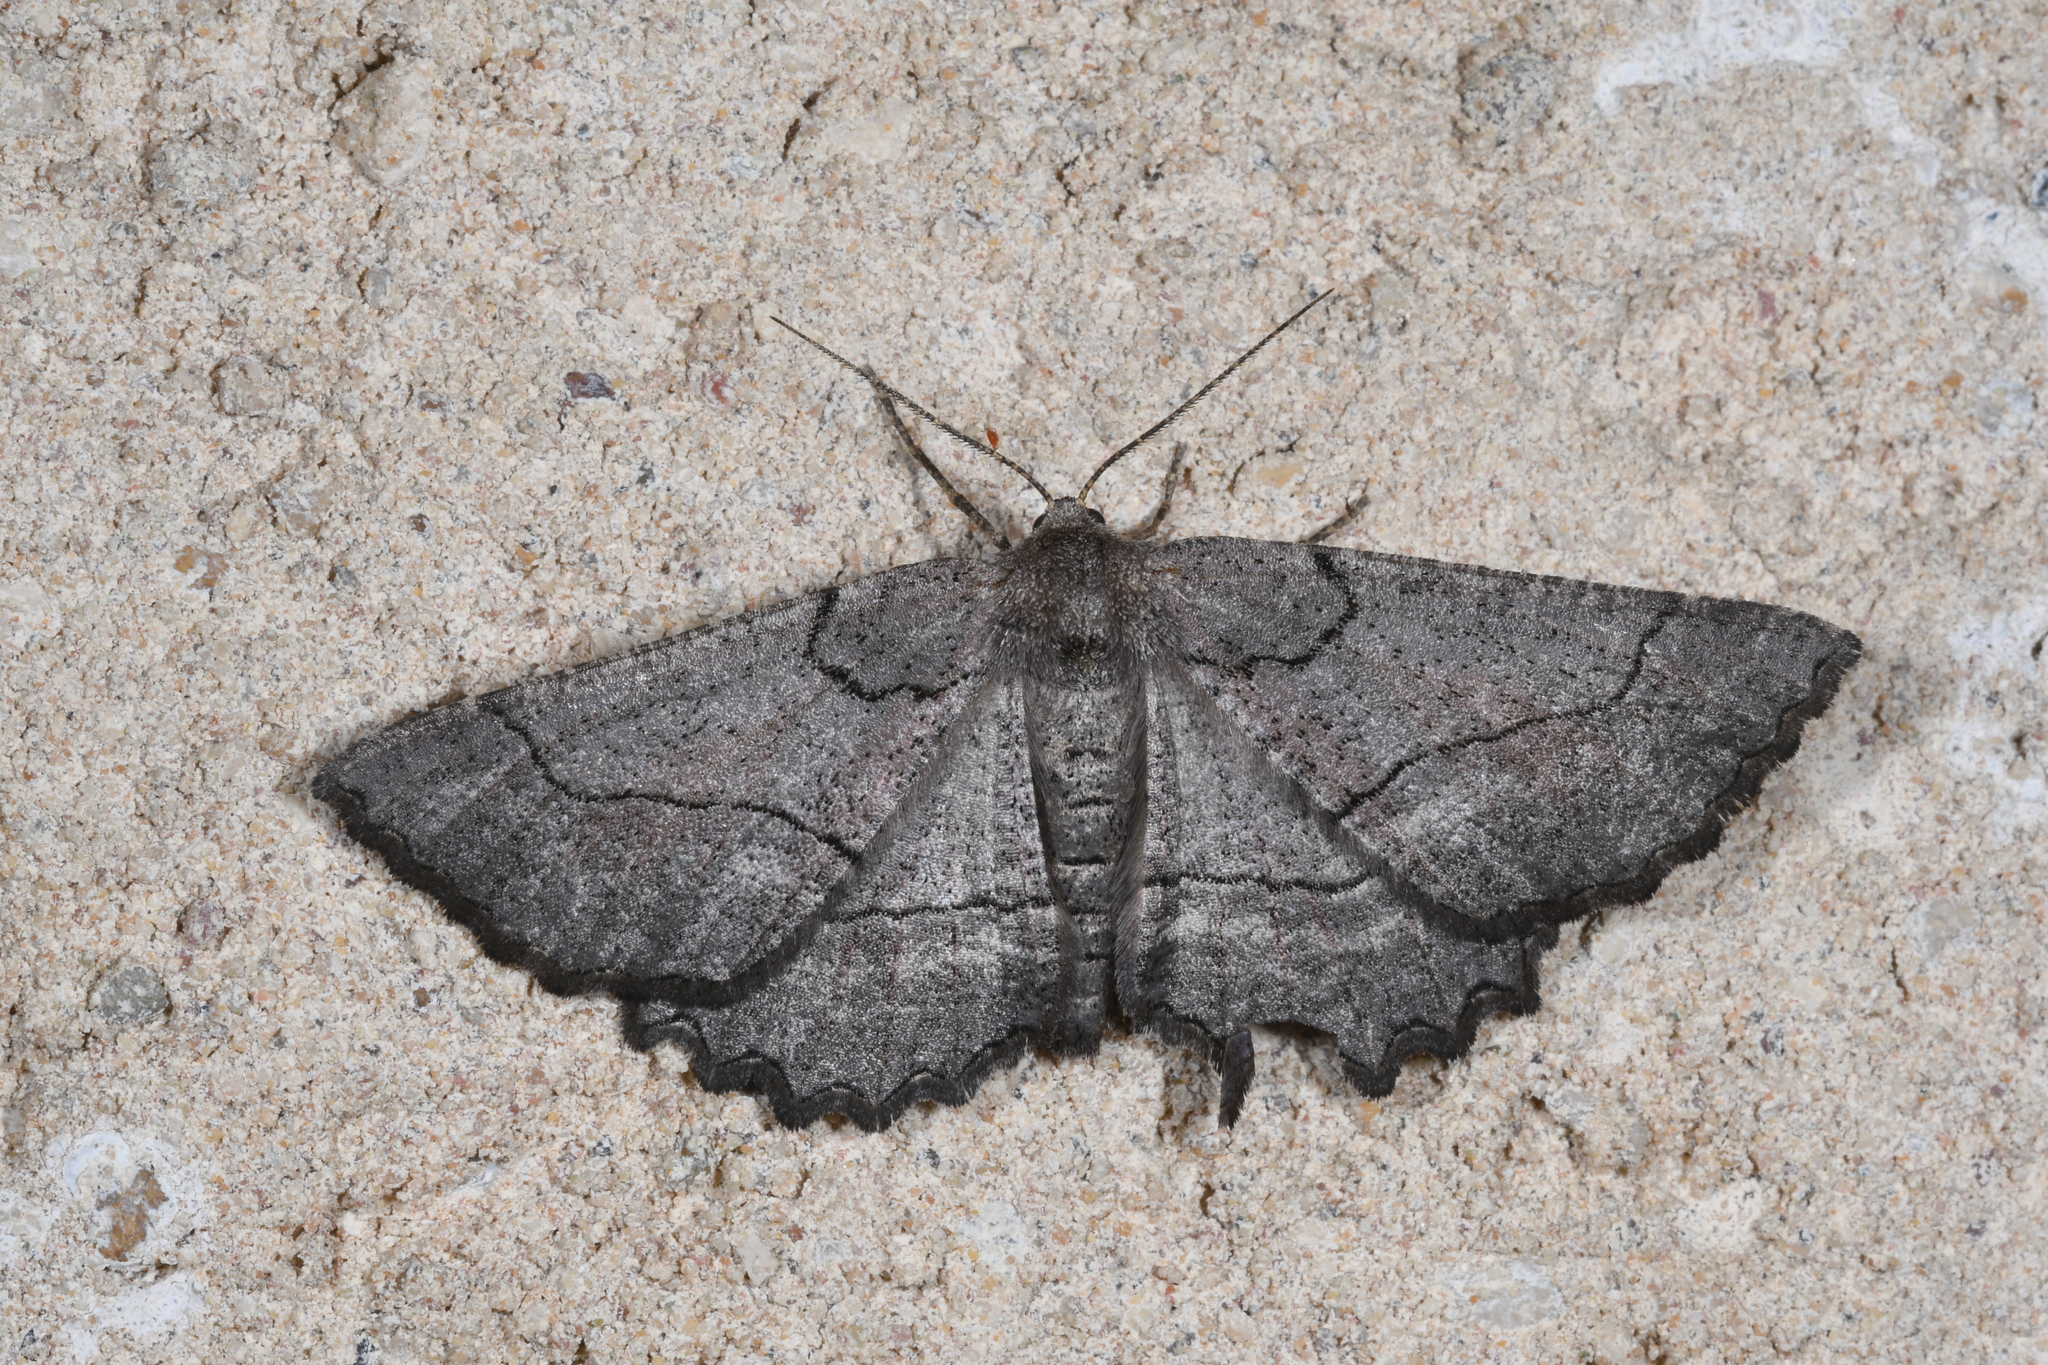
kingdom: Animalia
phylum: Arthropoda
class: Insecta
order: Lepidoptera
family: Geometridae
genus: Nychiodes
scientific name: Nychiodes obscuraria
